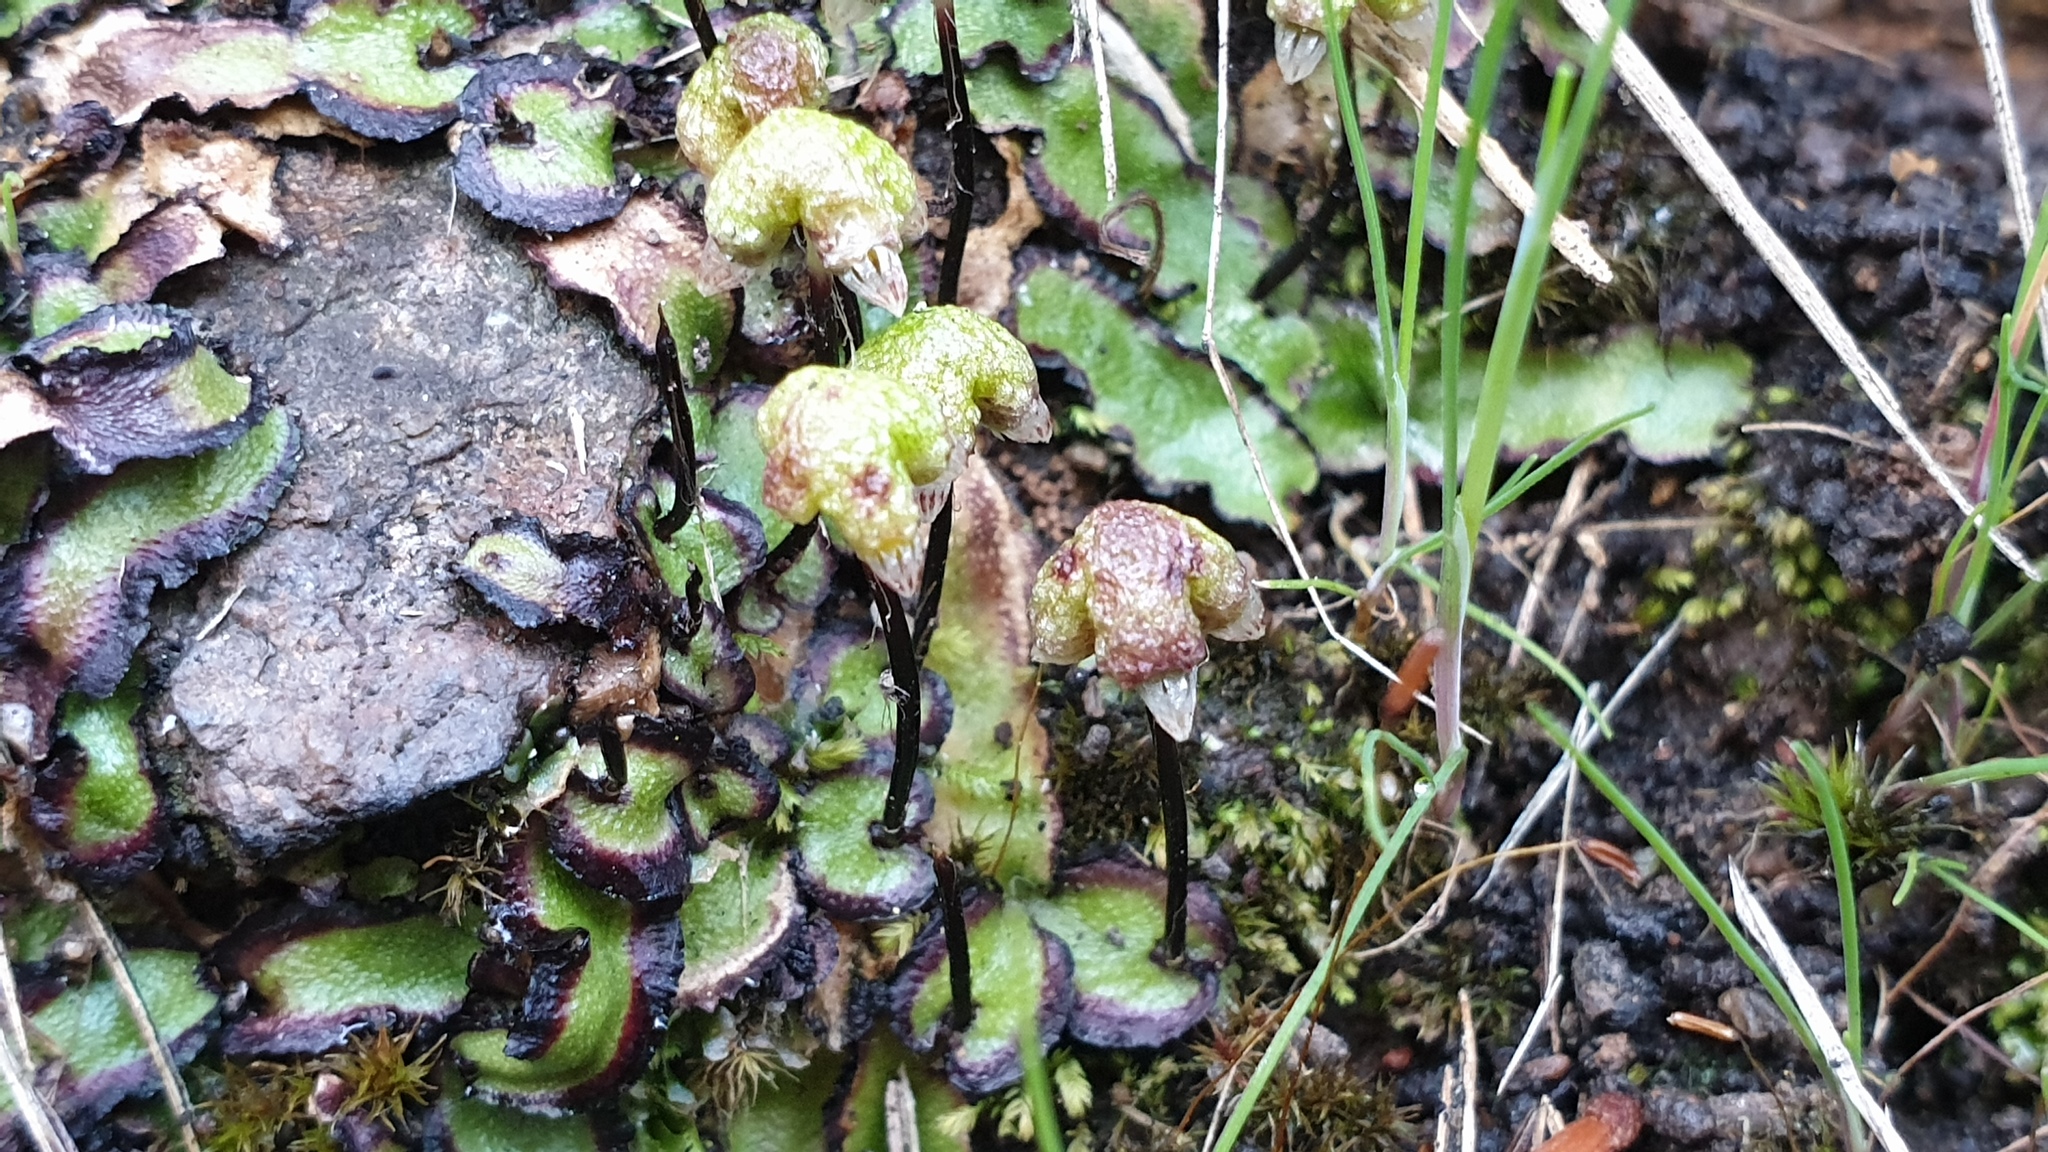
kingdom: Plantae
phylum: Marchantiophyta
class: Marchantiopsida
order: Marchantiales
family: Aytoniaceae
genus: Asterella
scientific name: Asterella drummondii
